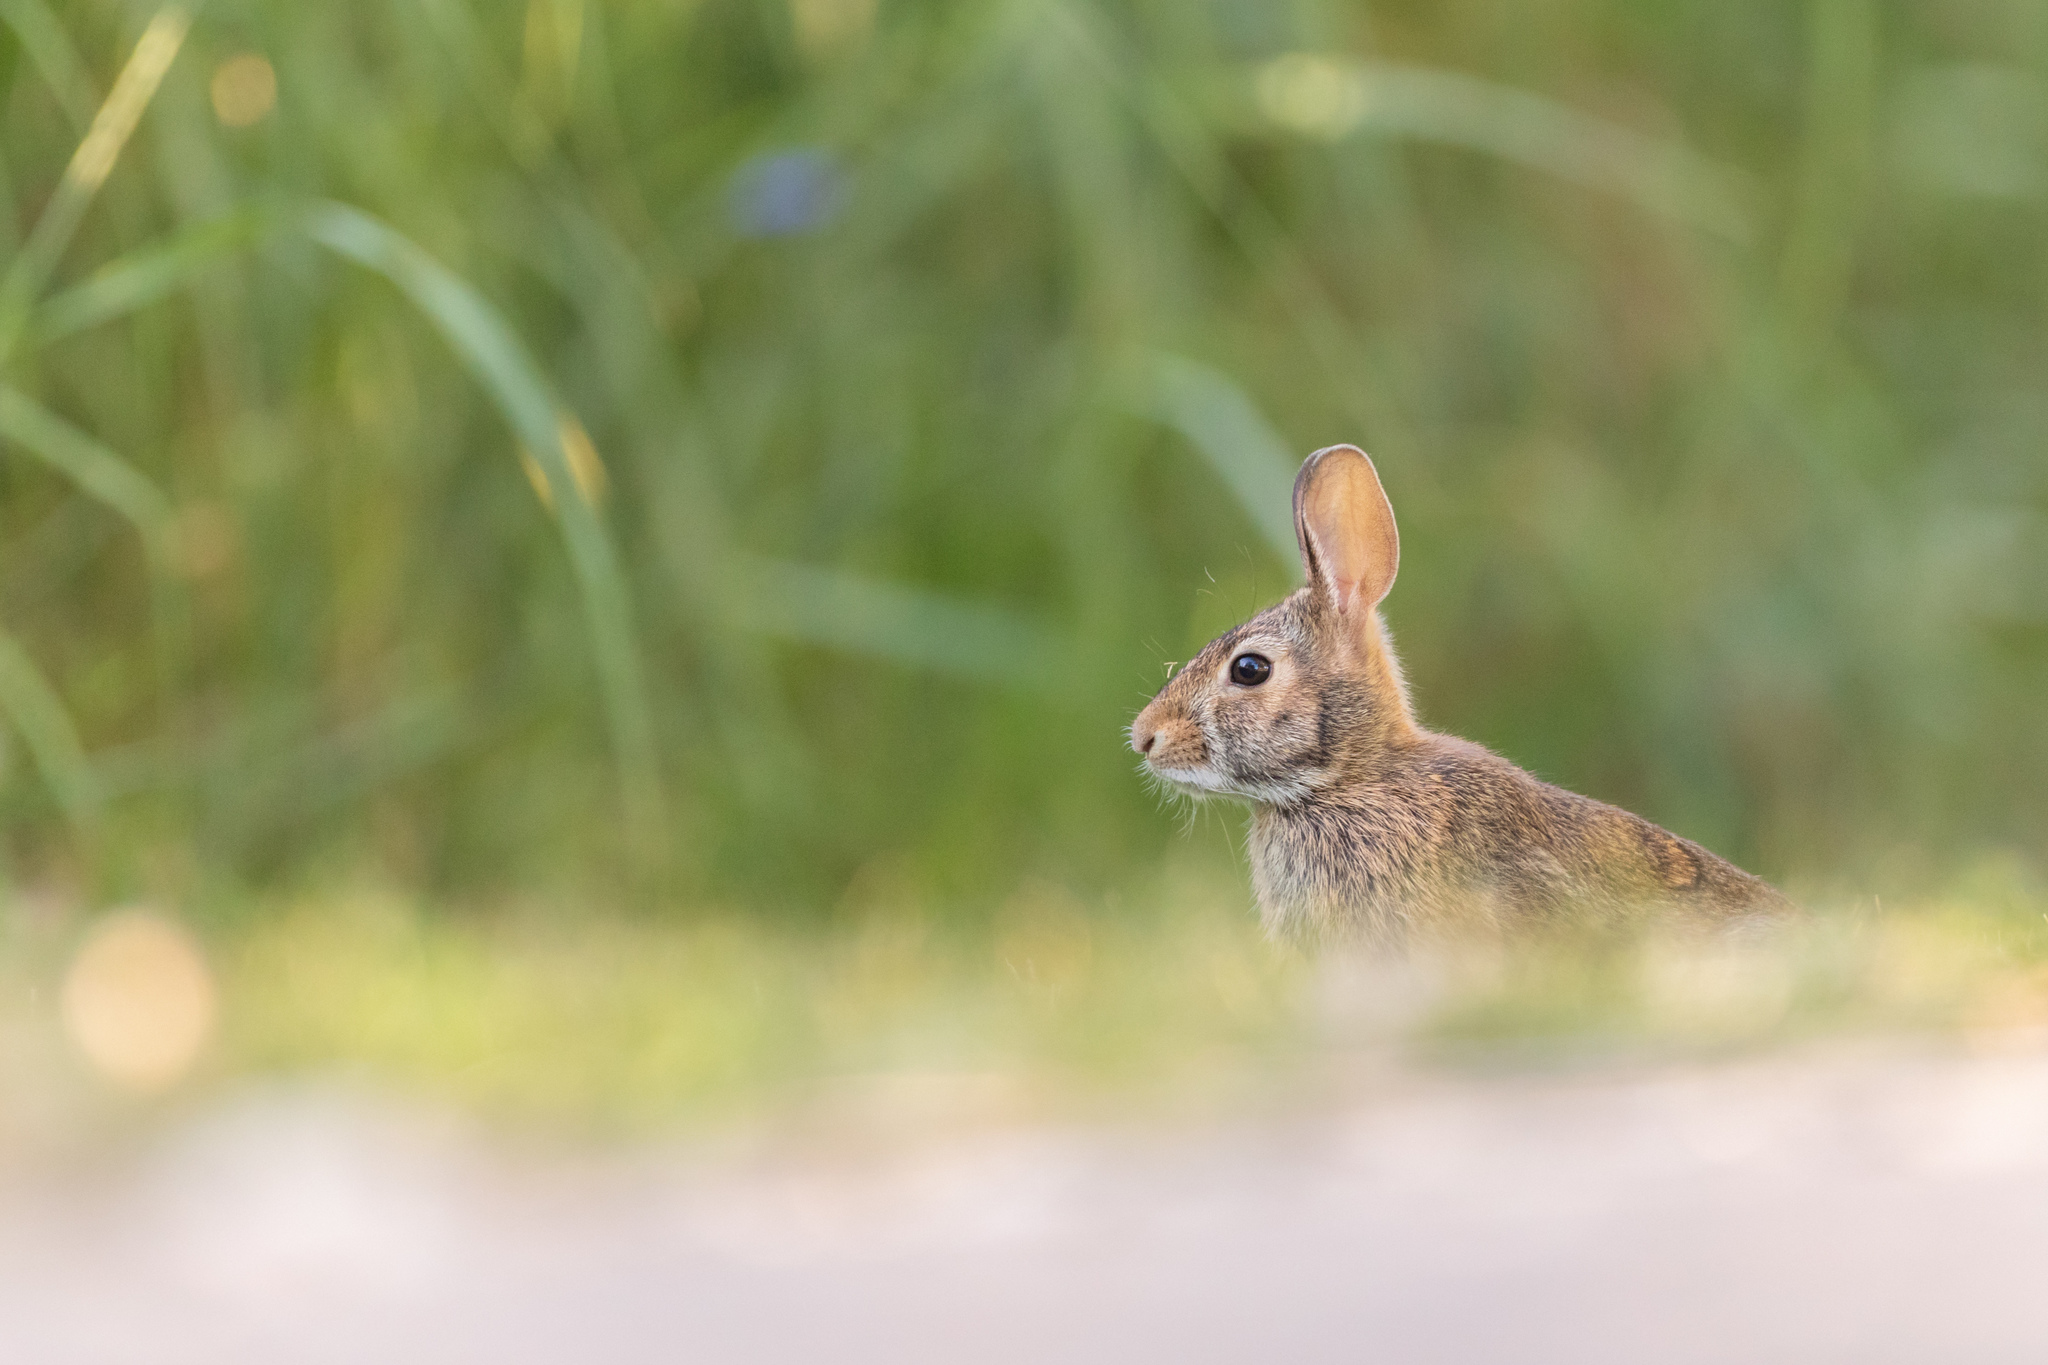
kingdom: Animalia
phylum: Chordata
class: Mammalia
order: Lagomorpha
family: Leporidae
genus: Sylvilagus
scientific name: Sylvilagus floridanus
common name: Eastern cottontail
